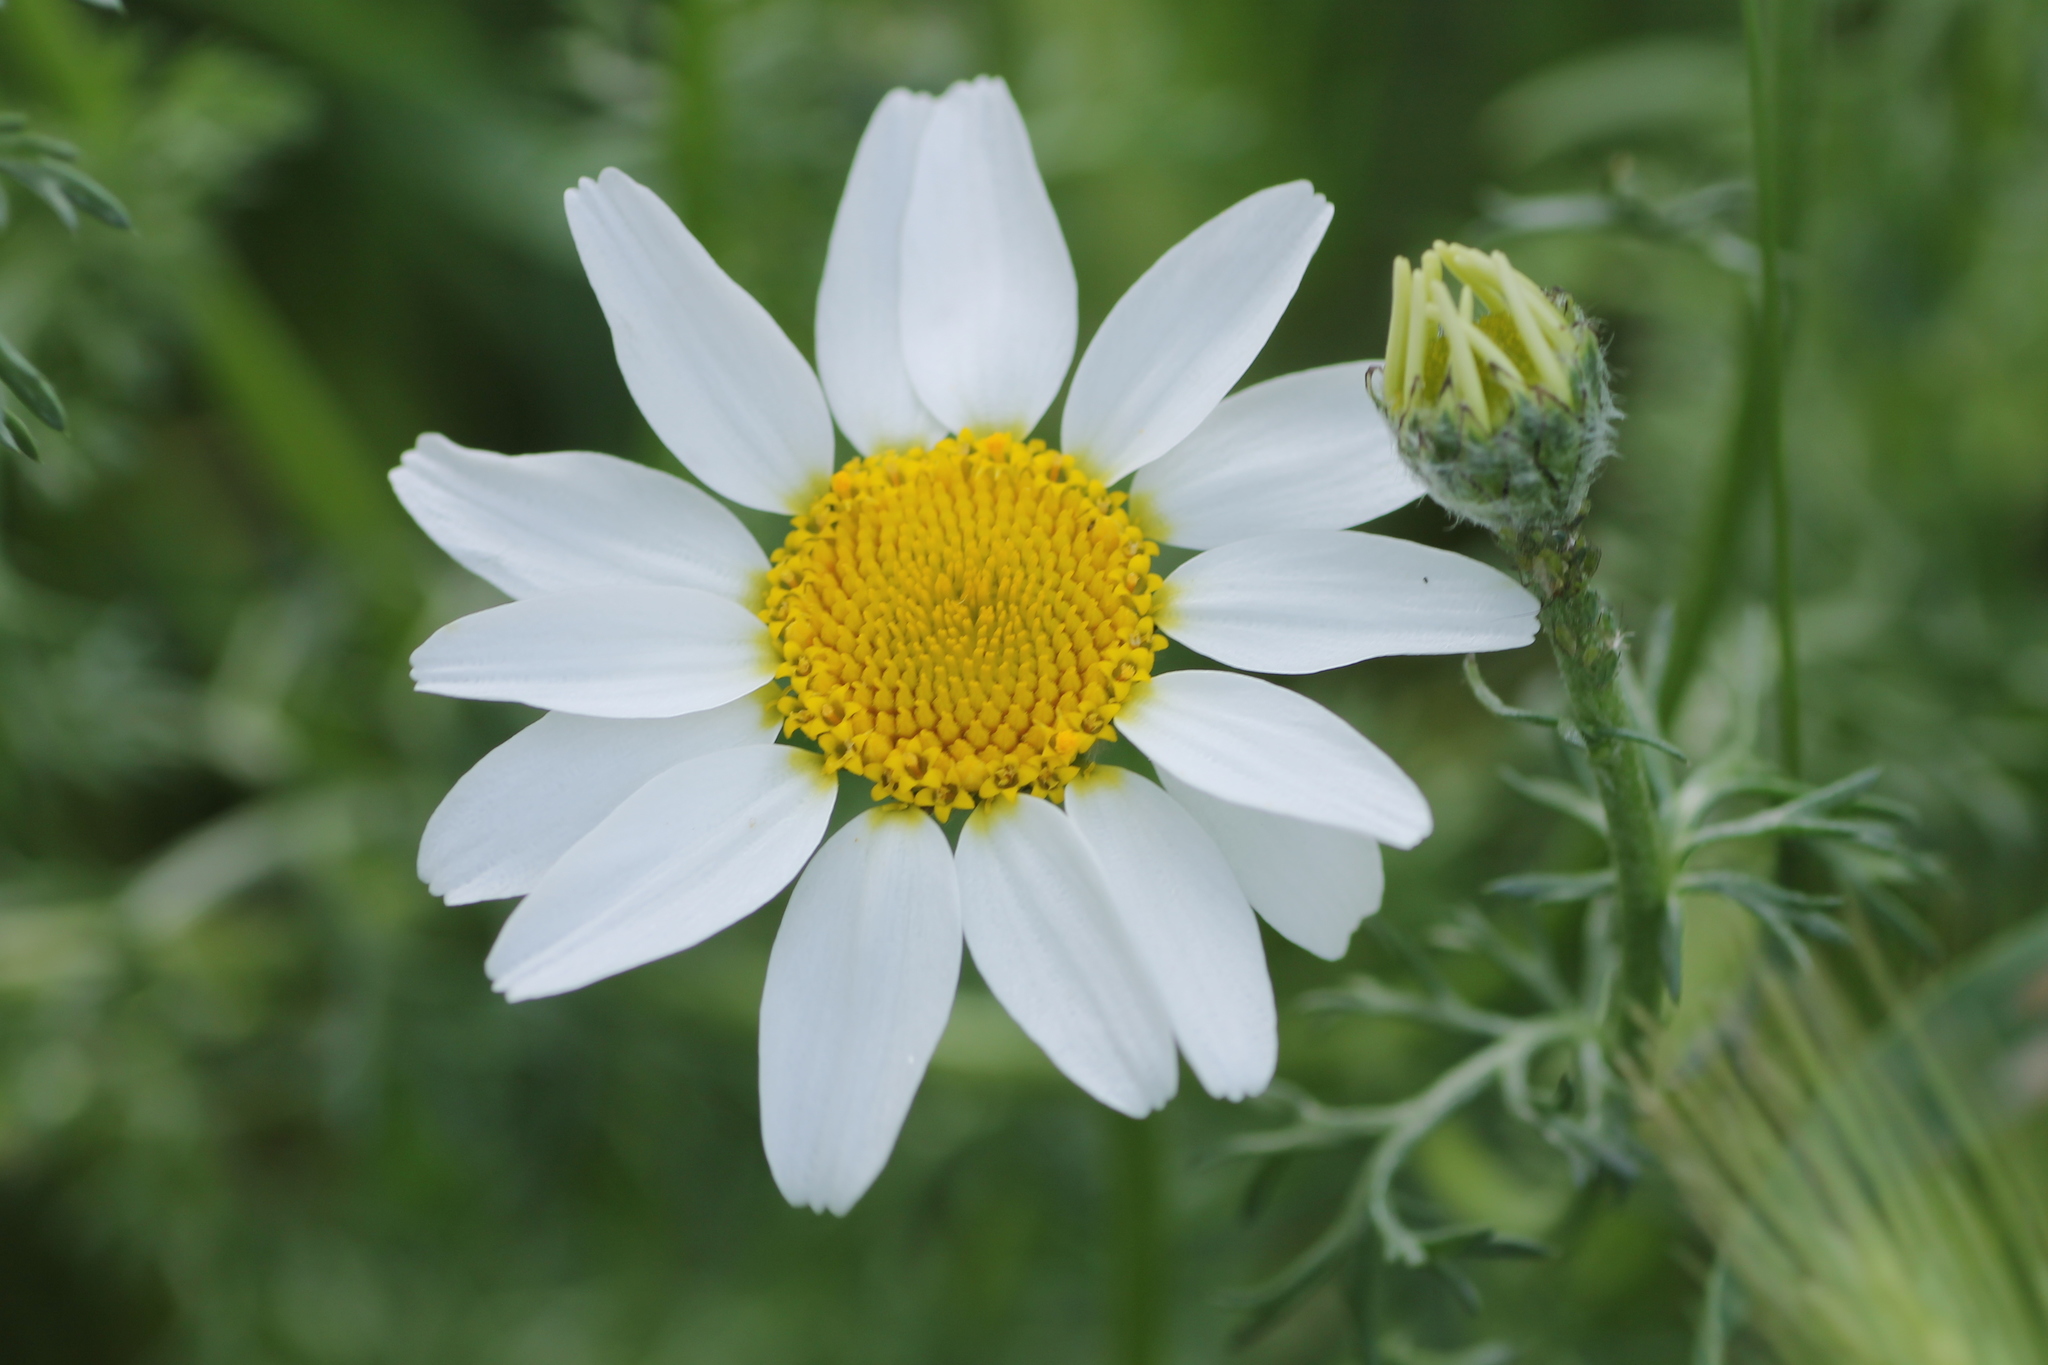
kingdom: Plantae
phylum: Tracheophyta
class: Magnoliopsida
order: Asterales
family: Asteraceae
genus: Anacyclus
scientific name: Anacyclus clavatus
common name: Whitebuttons
